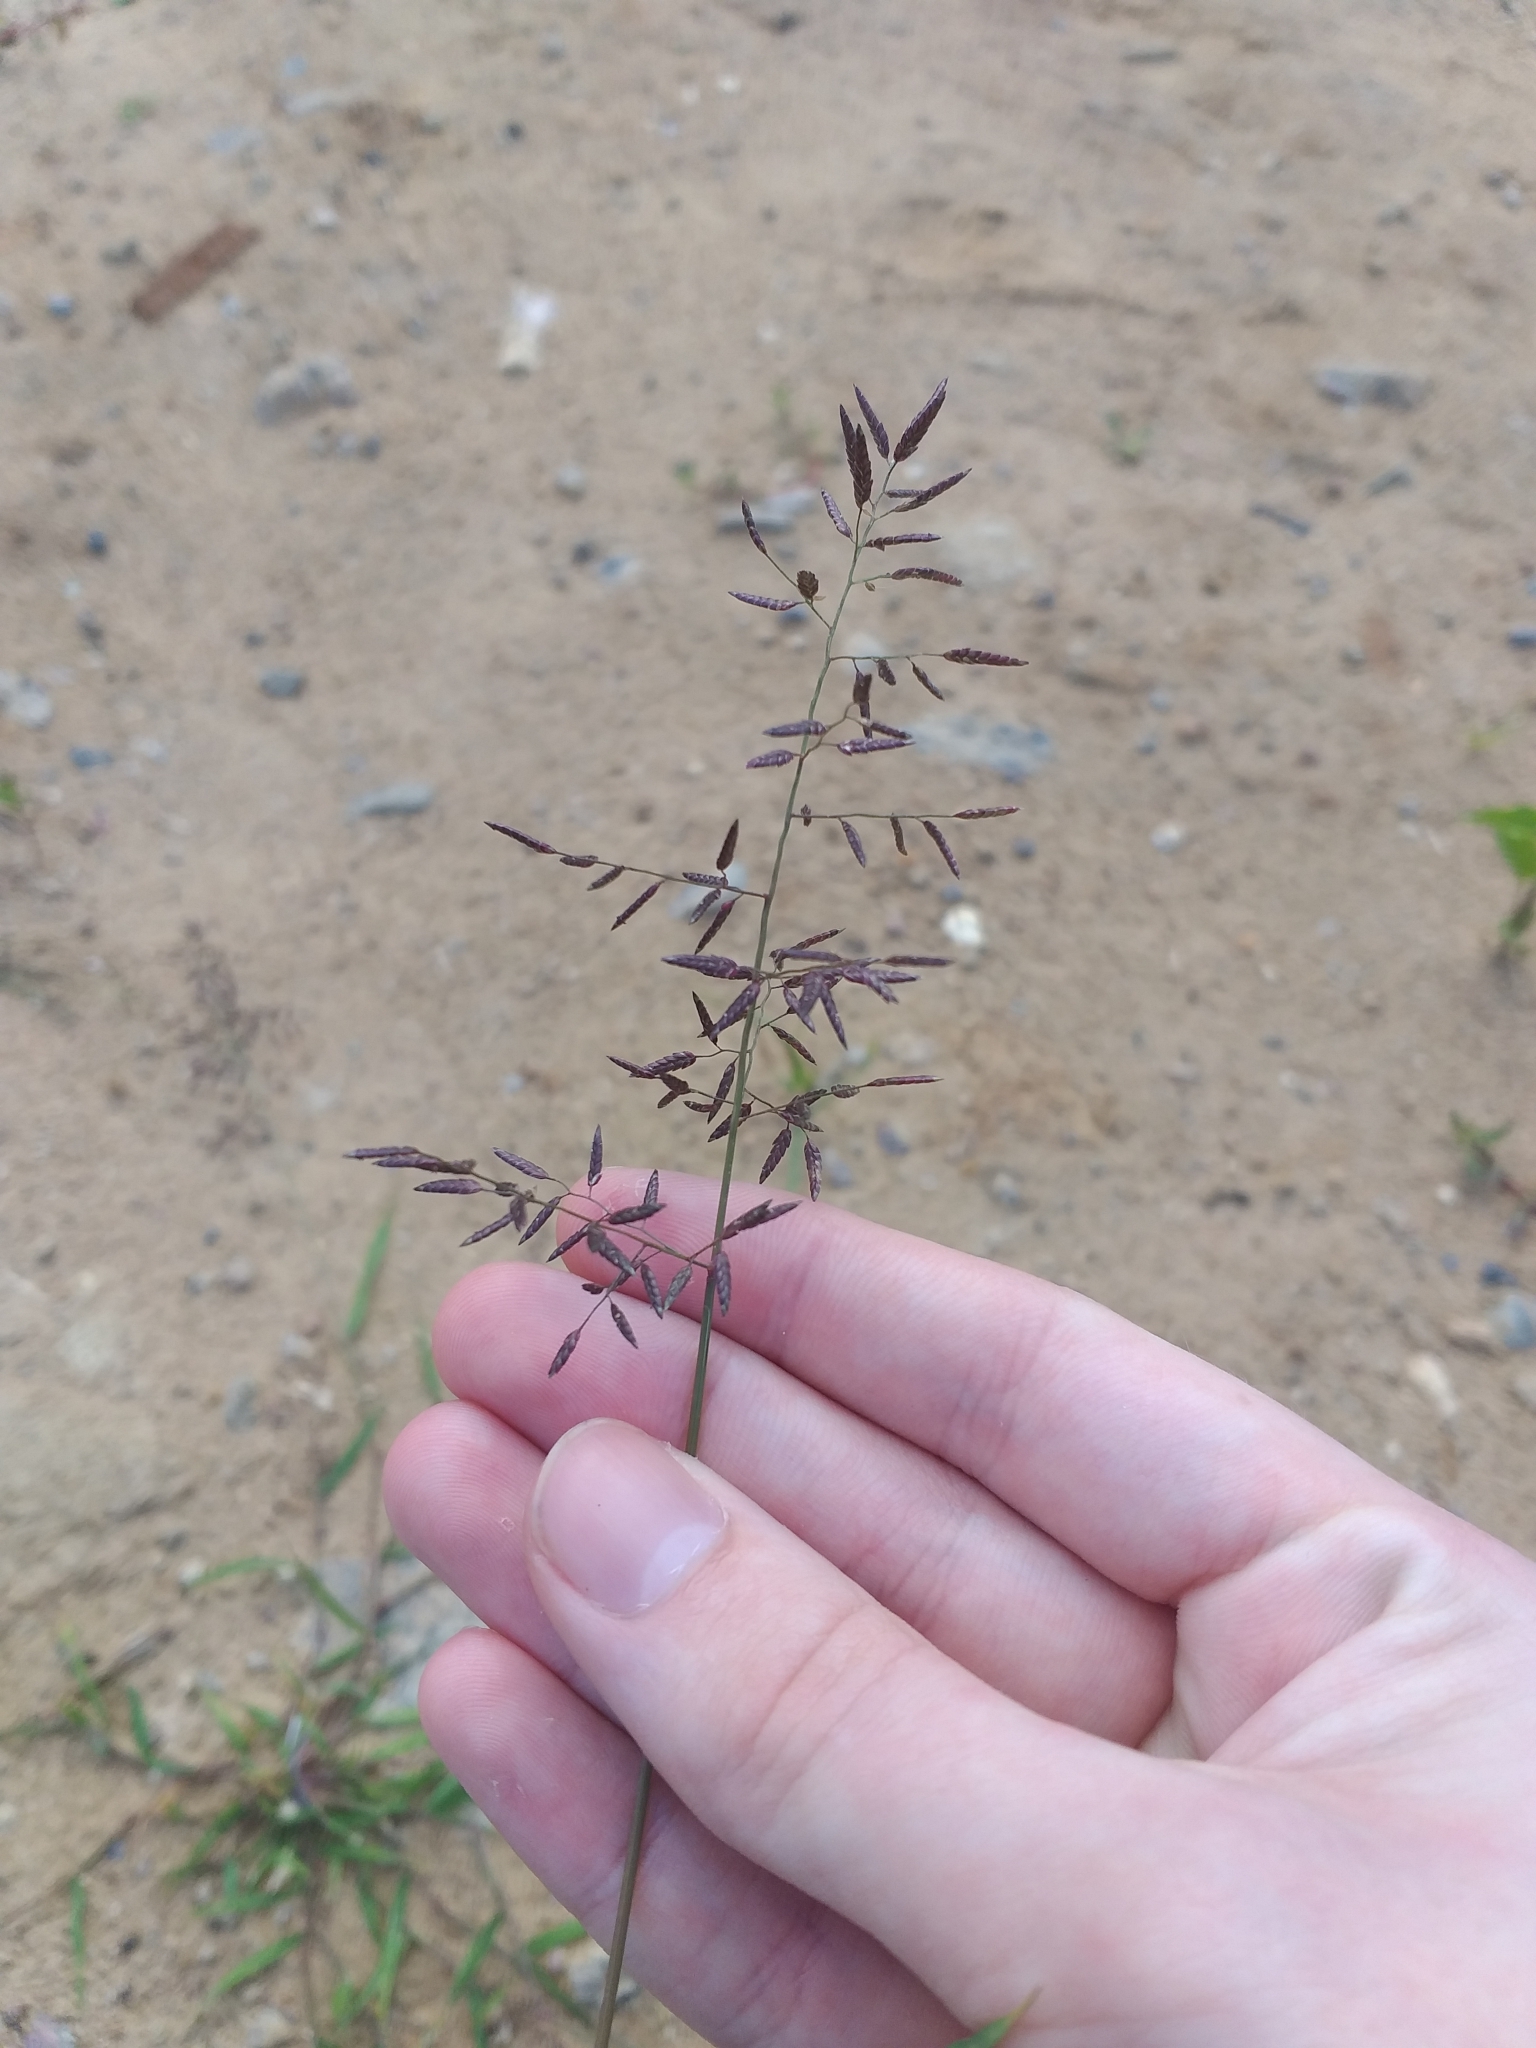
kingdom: Plantae
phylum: Tracheophyta
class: Liliopsida
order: Poales
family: Poaceae
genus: Eragrostis
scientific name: Eragrostis minor
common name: Small love-grass
